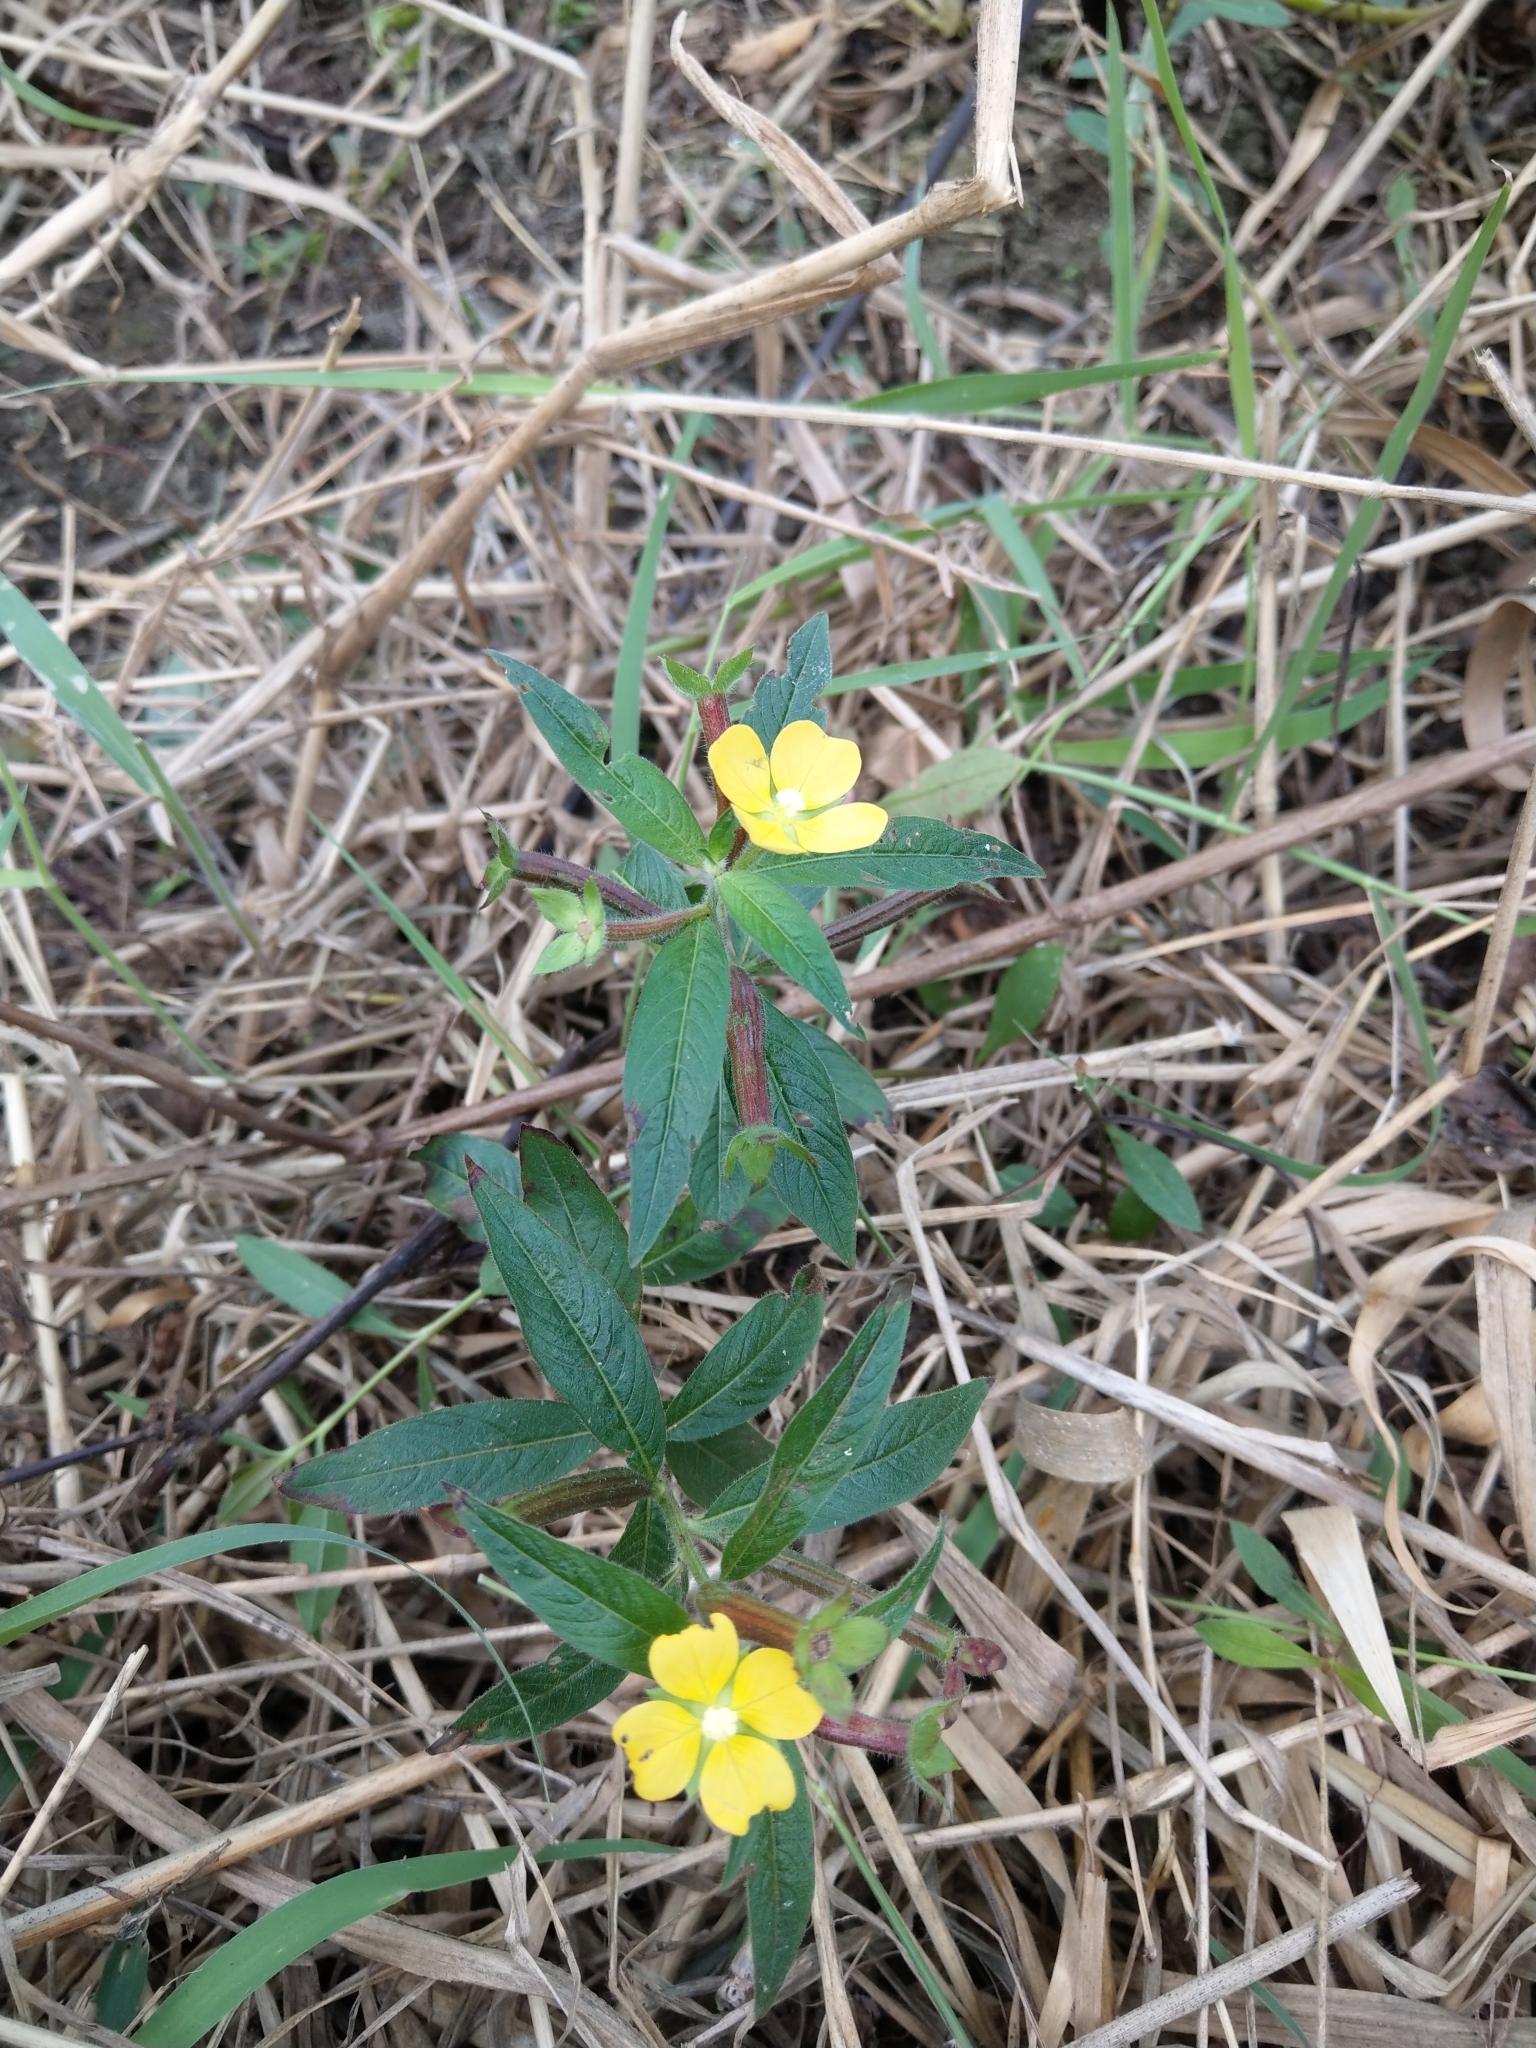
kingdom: Plantae
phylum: Tracheophyta
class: Magnoliopsida
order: Myrtales
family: Onagraceae
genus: Ludwigia
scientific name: Ludwigia octovalvis
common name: Water-primrose
